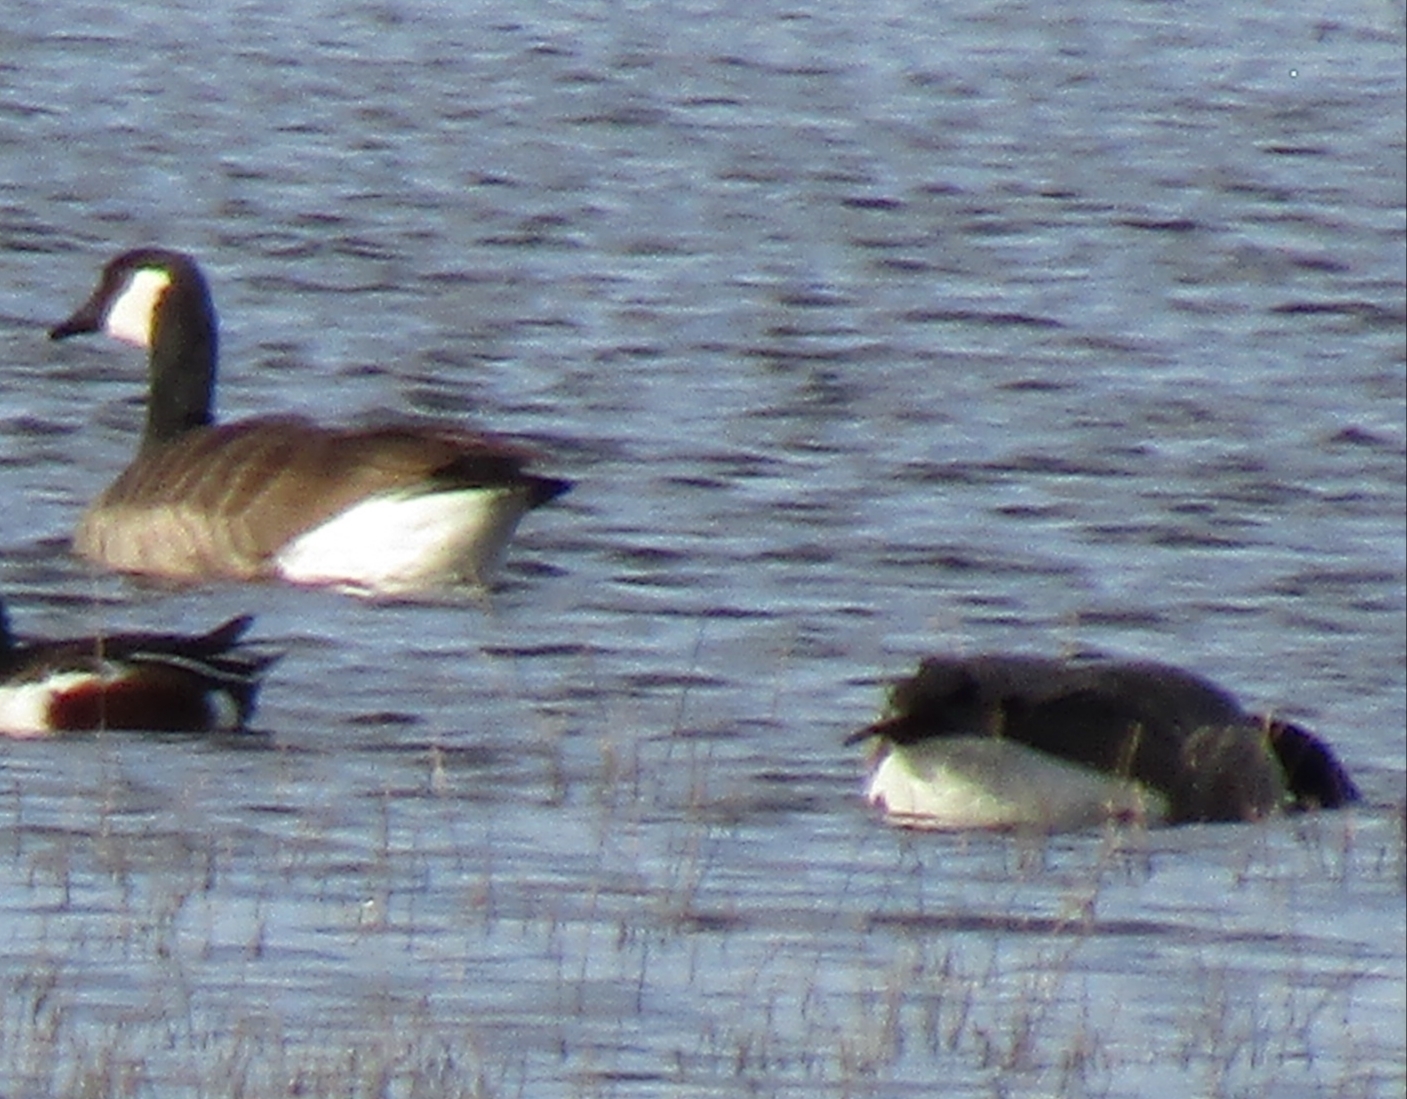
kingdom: Animalia
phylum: Chordata
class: Aves
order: Anseriformes
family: Anatidae
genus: Branta
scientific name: Branta canadensis
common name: Canada goose
